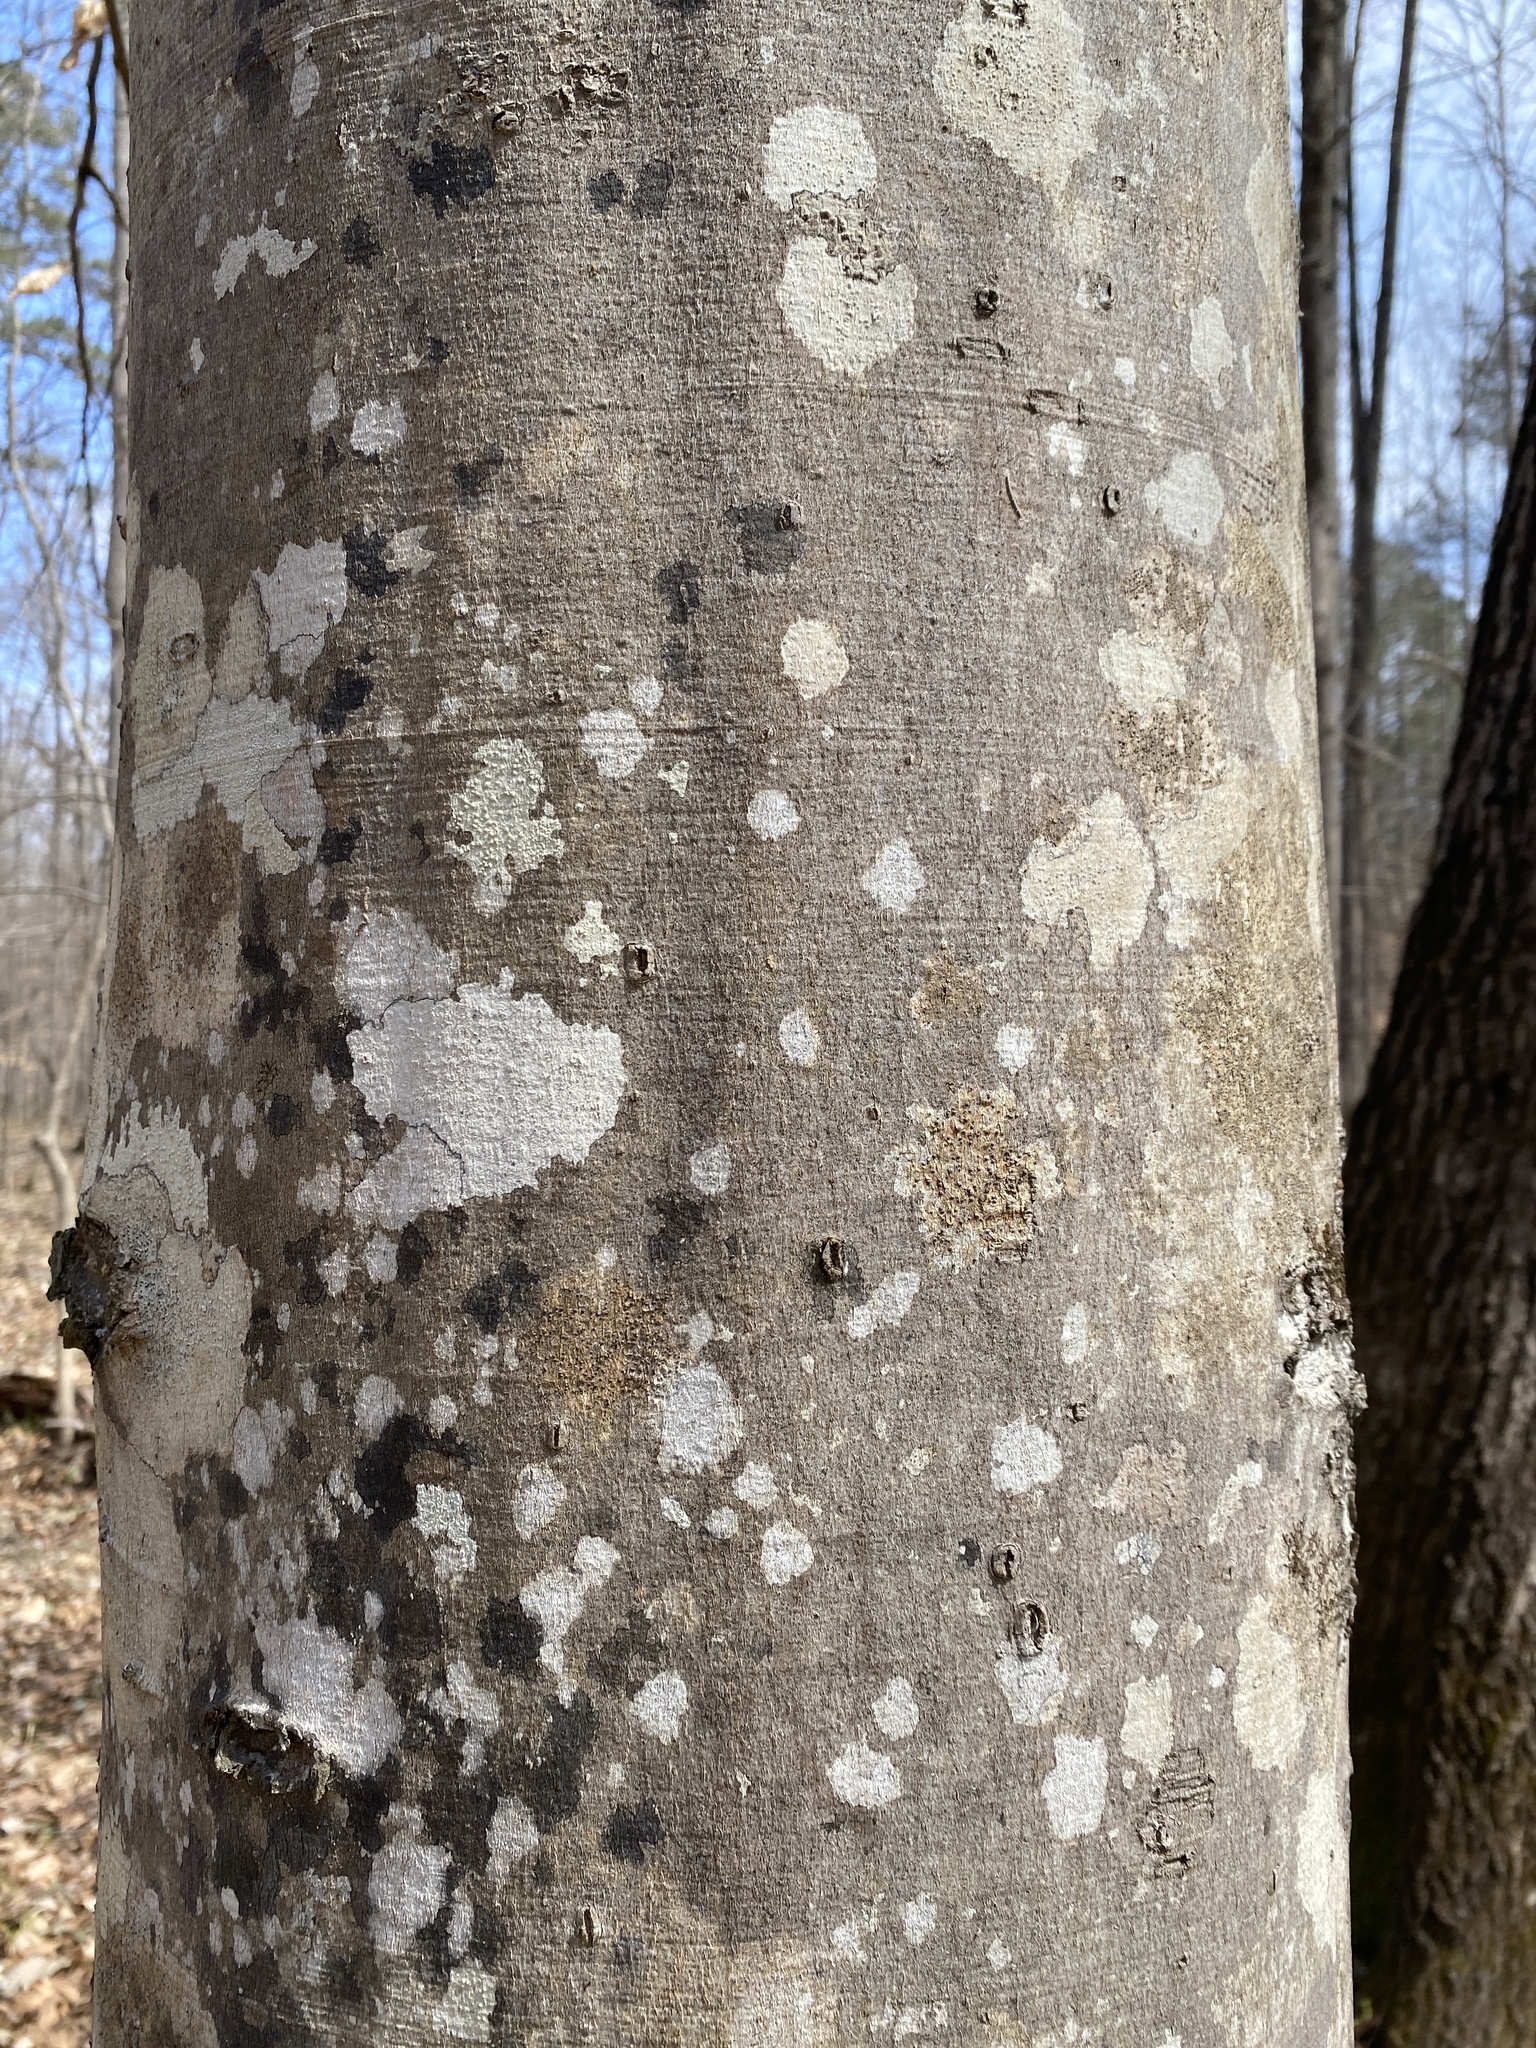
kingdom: Plantae
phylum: Tracheophyta
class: Magnoliopsida
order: Fagales
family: Fagaceae
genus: Fagus
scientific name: Fagus grandifolia
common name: American beech
